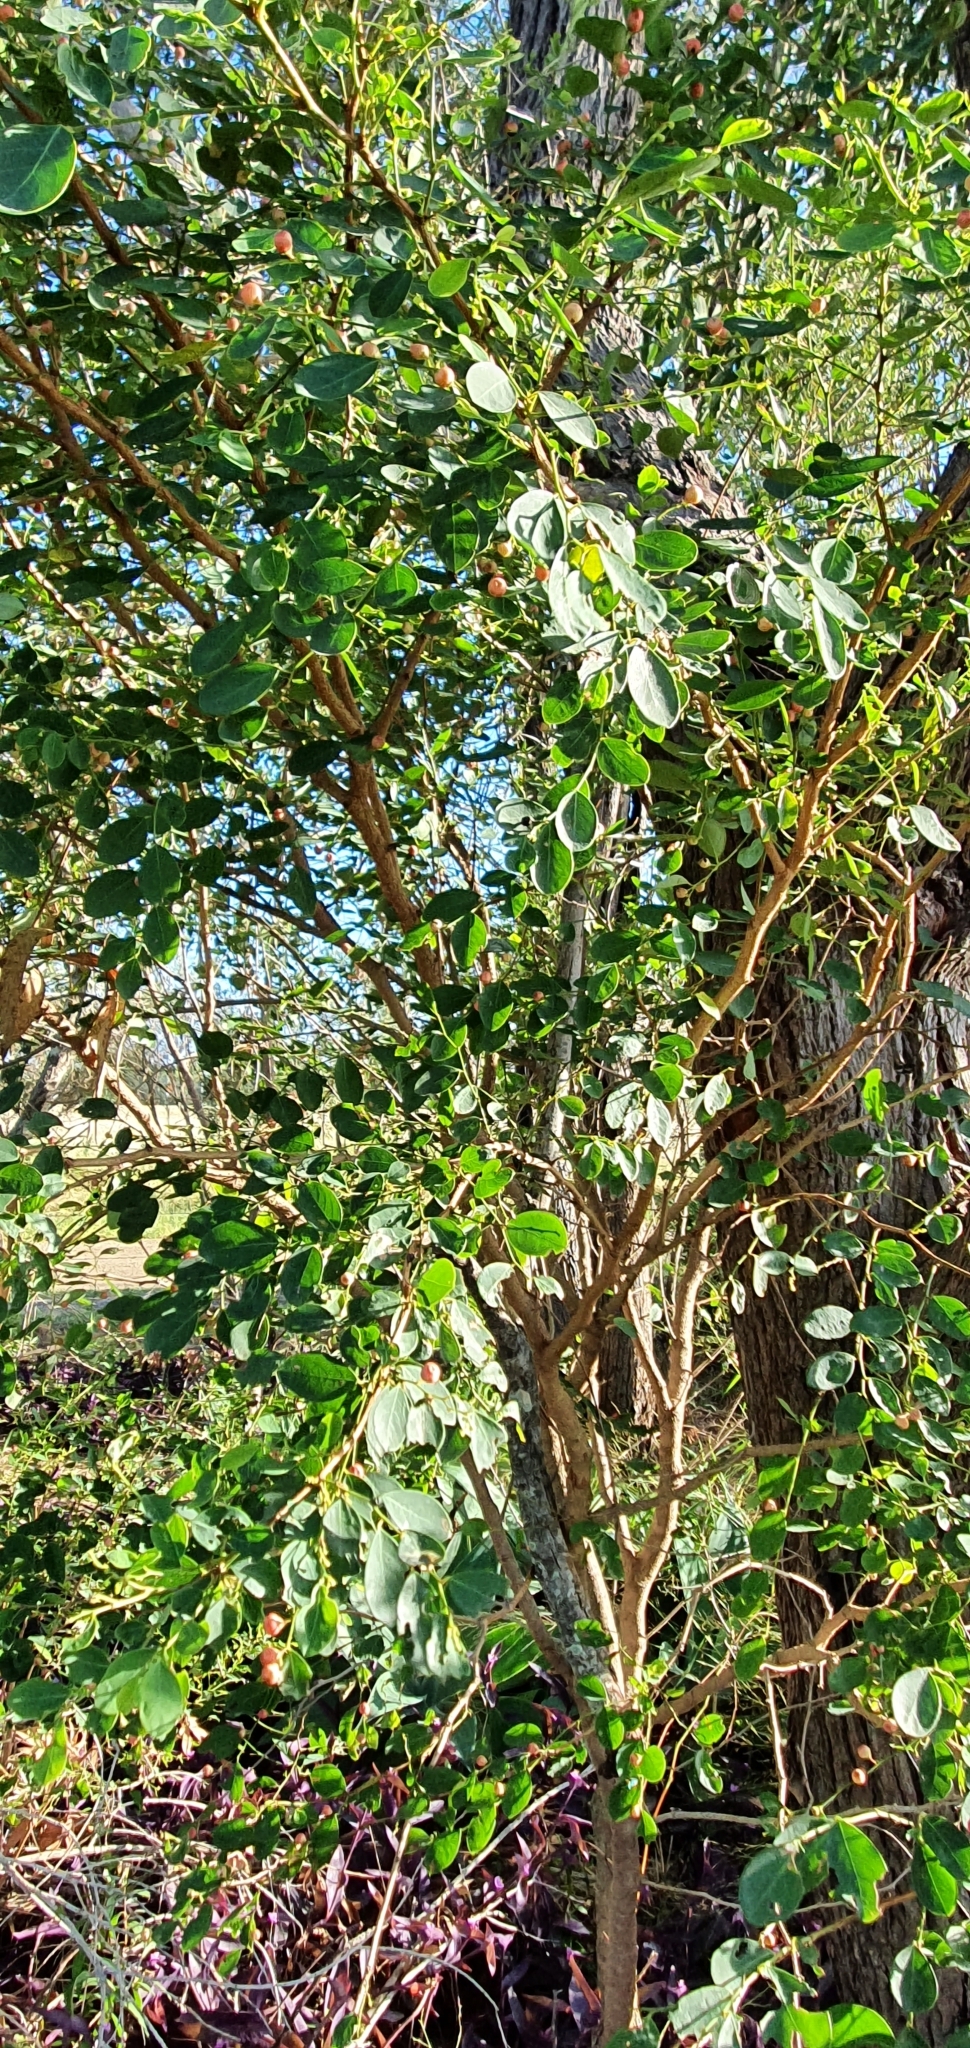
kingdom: Plantae
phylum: Tracheophyta
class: Magnoliopsida
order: Malpighiales
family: Phyllanthaceae
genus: Breynia
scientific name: Breynia oblongifolia
